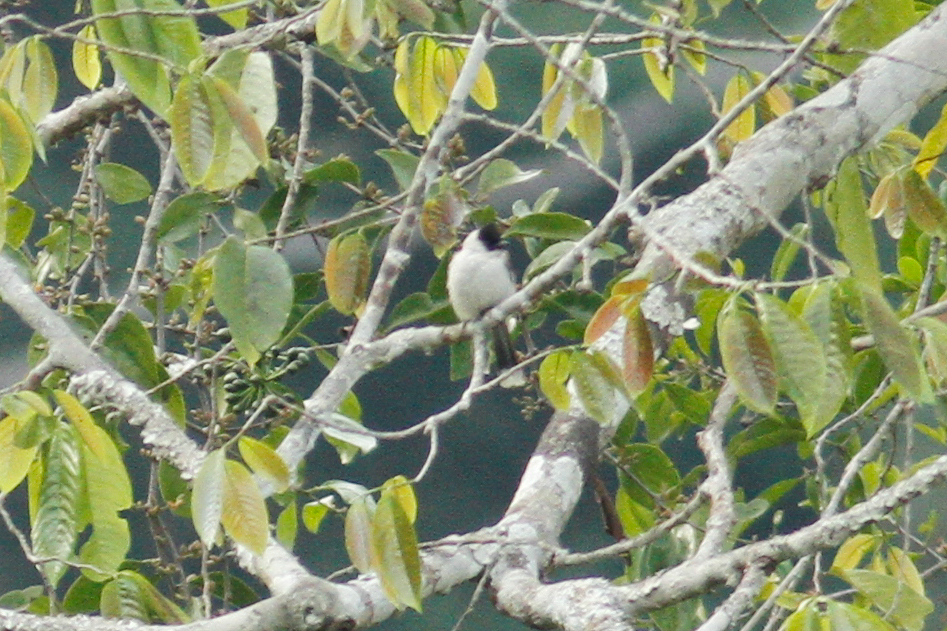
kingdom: Animalia
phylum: Chordata
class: Aves
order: Passeriformes
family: Pycnonotidae
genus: Pycnonotus
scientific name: Pycnonotus aurigaster
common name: Sooty-headed bulbul
